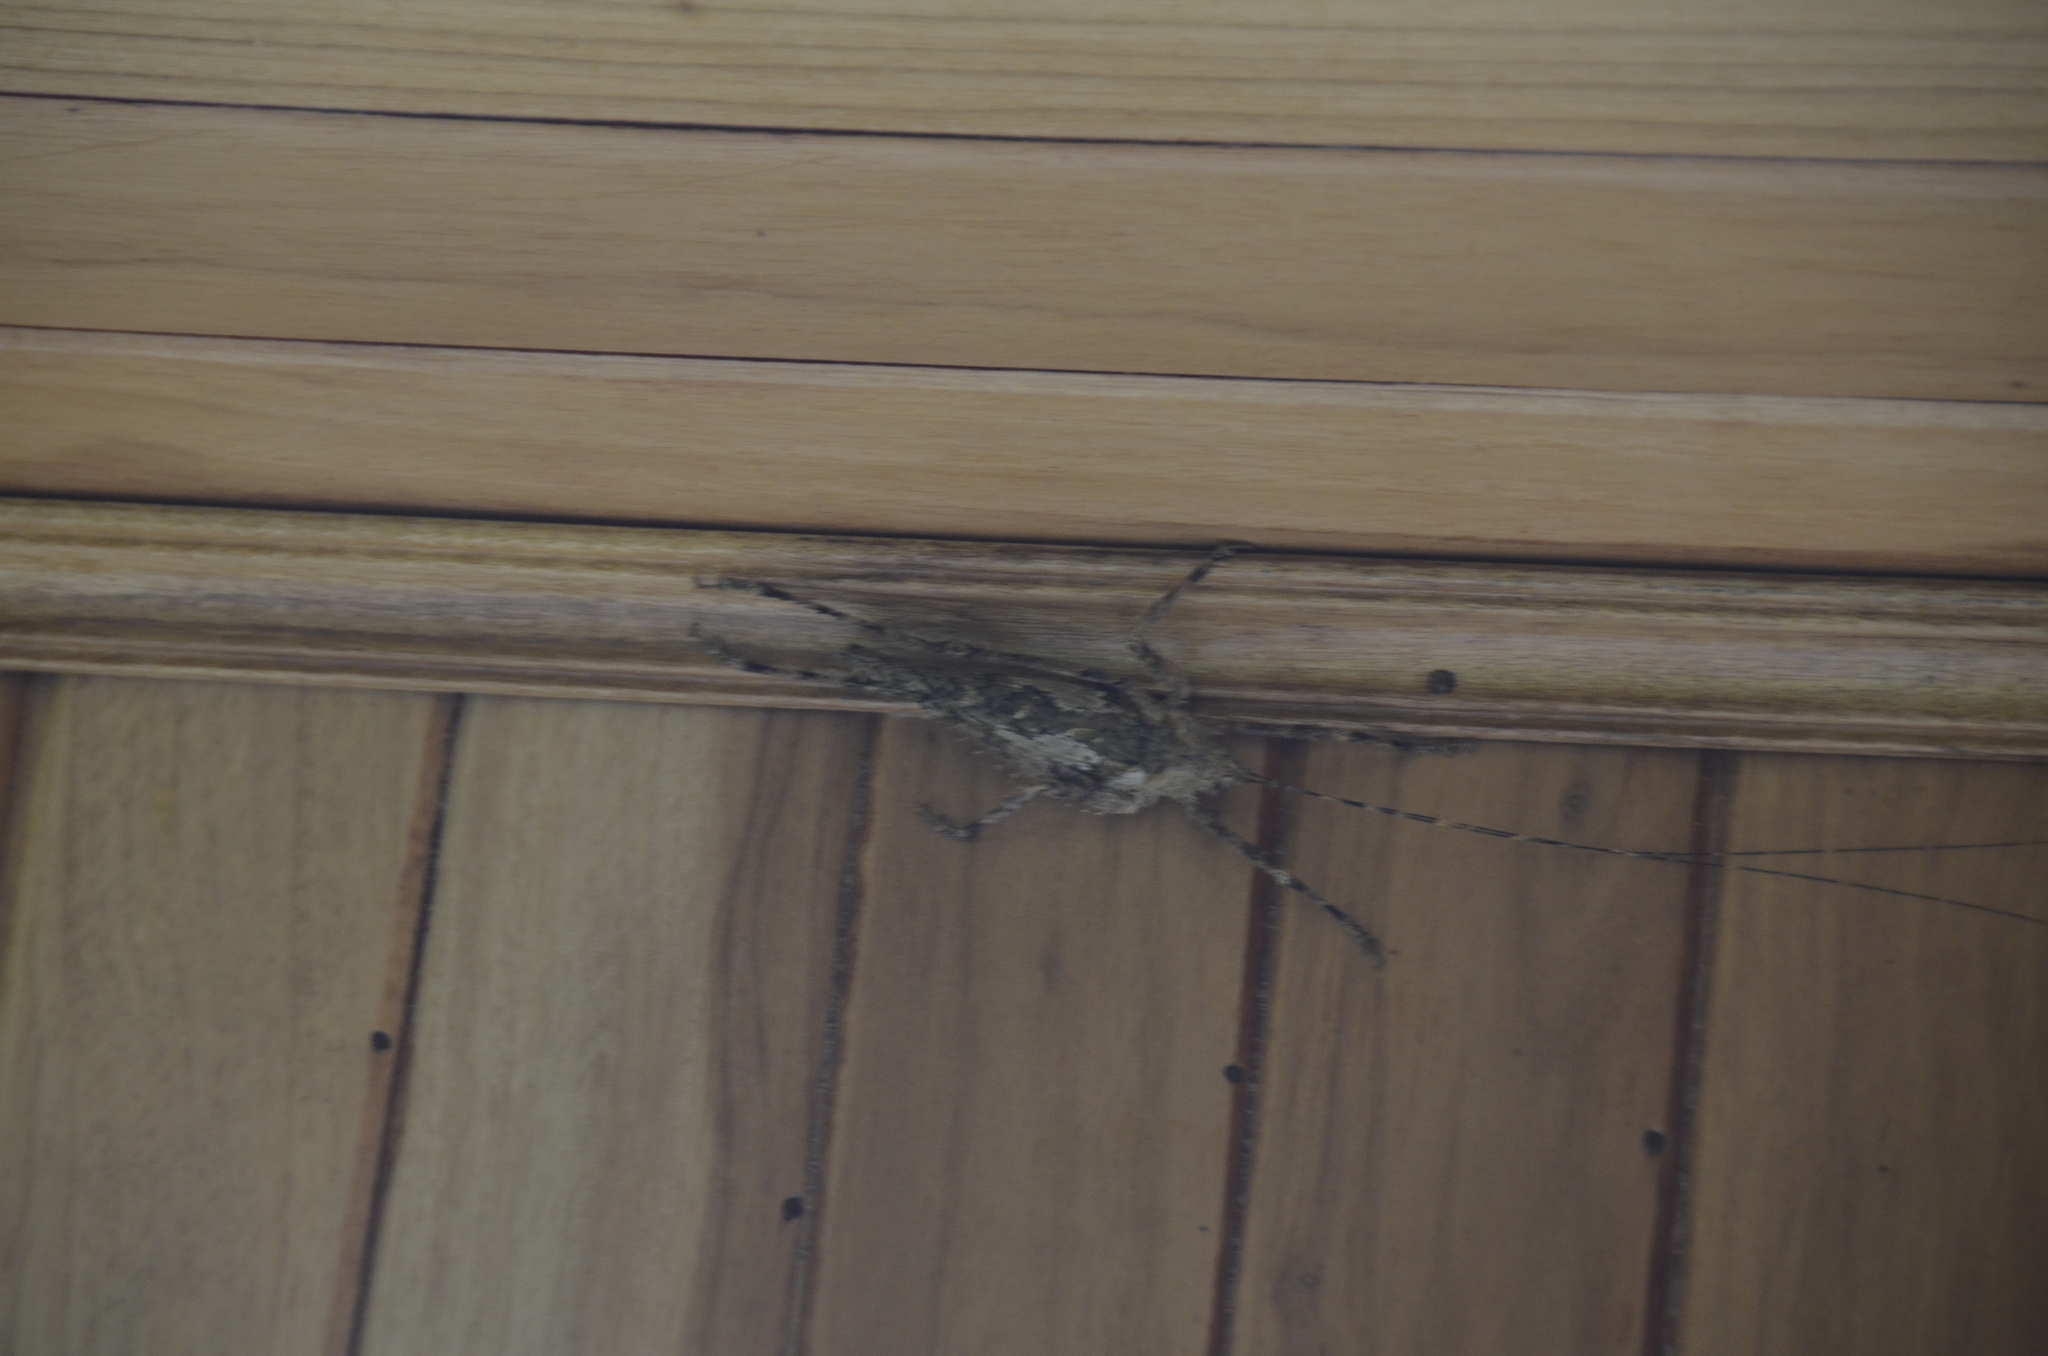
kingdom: Animalia
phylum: Arthropoda
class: Insecta
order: Orthoptera
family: Tettigoniidae
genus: Haemodiasma
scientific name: Haemodiasma tessellata
